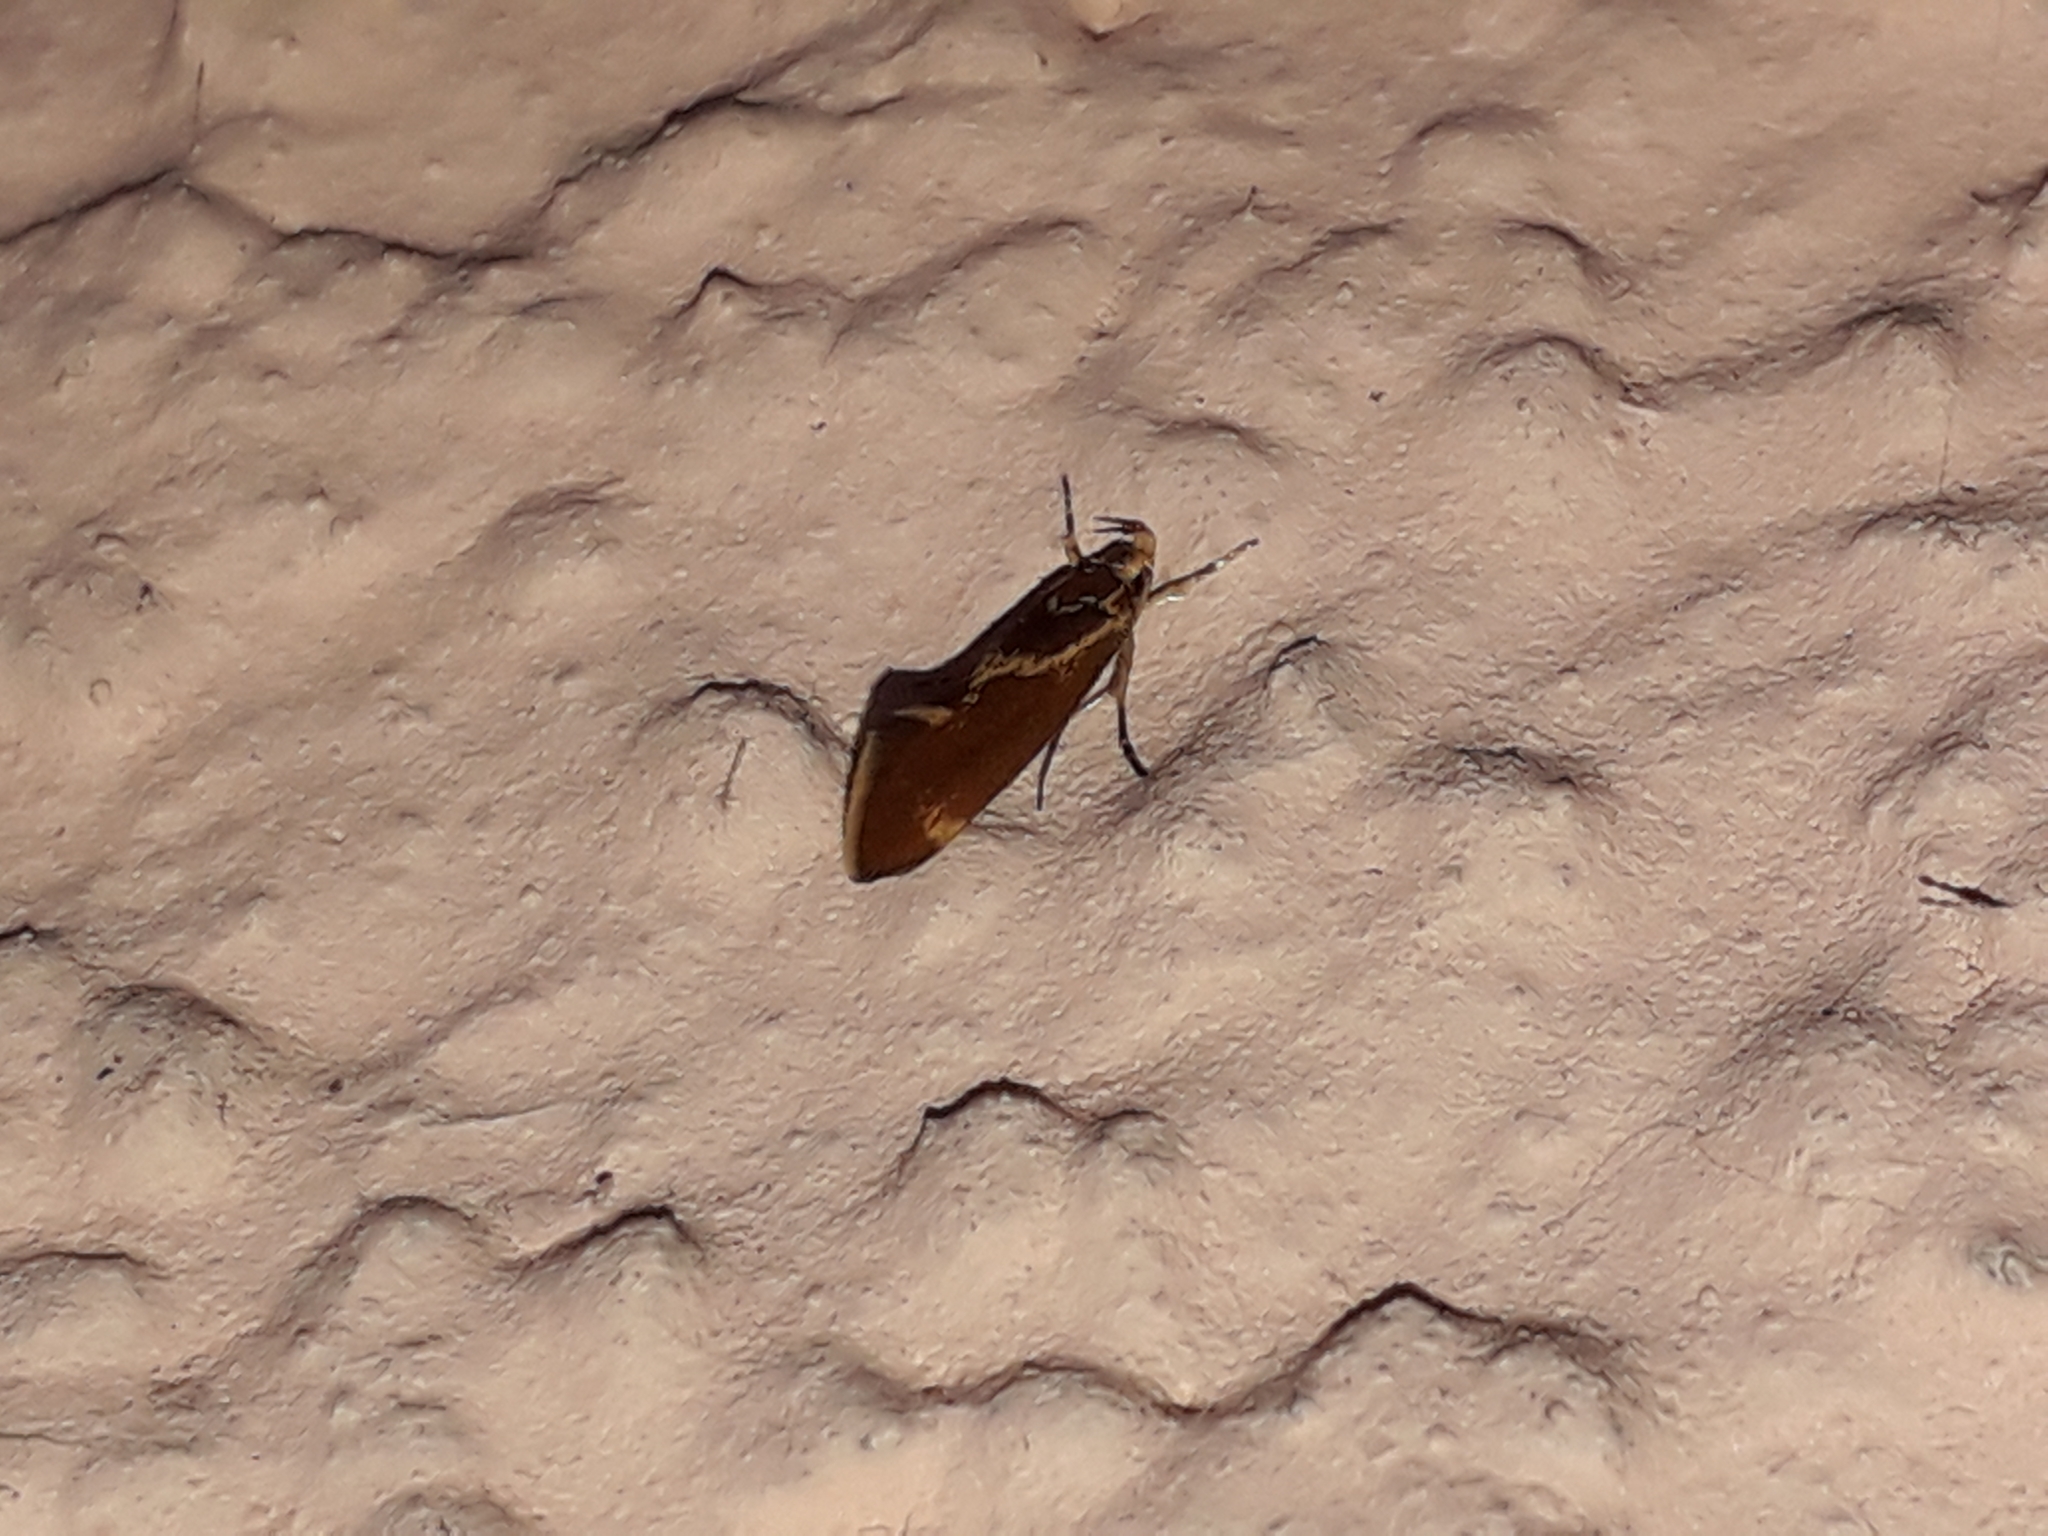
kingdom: Animalia
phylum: Arthropoda
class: Insecta
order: Lepidoptera
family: Oecophoridae
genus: Borkhausenia
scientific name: Borkhausenia italica
